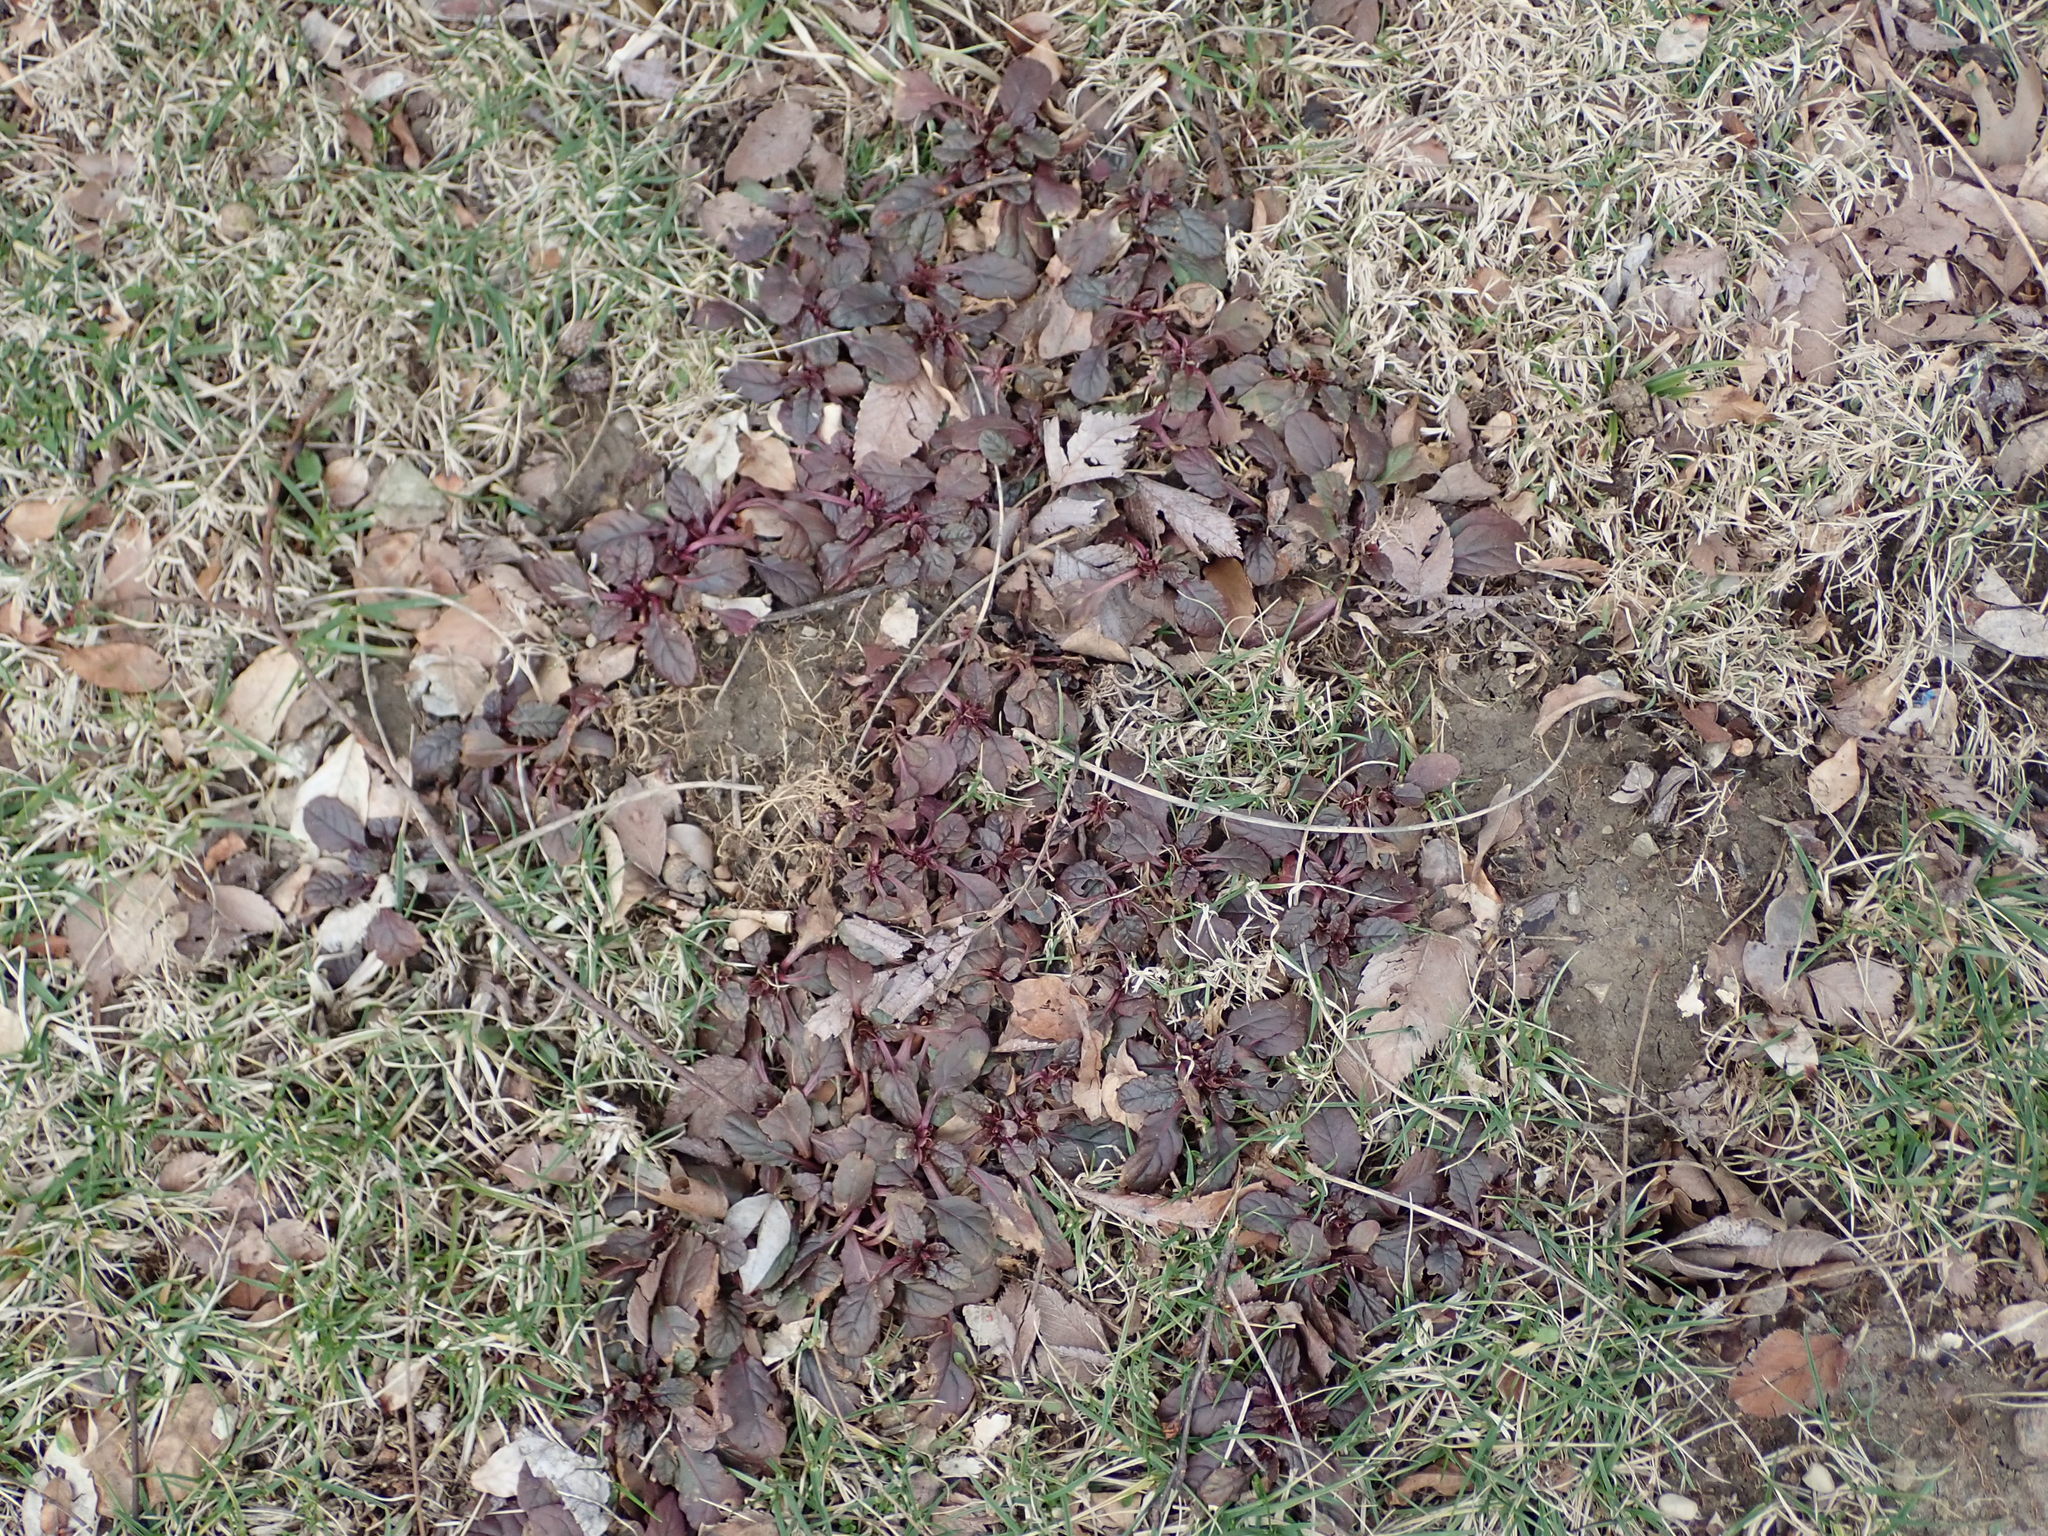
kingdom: Plantae
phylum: Tracheophyta
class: Magnoliopsida
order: Lamiales
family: Lamiaceae
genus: Ajuga
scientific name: Ajuga reptans
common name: Bugle
